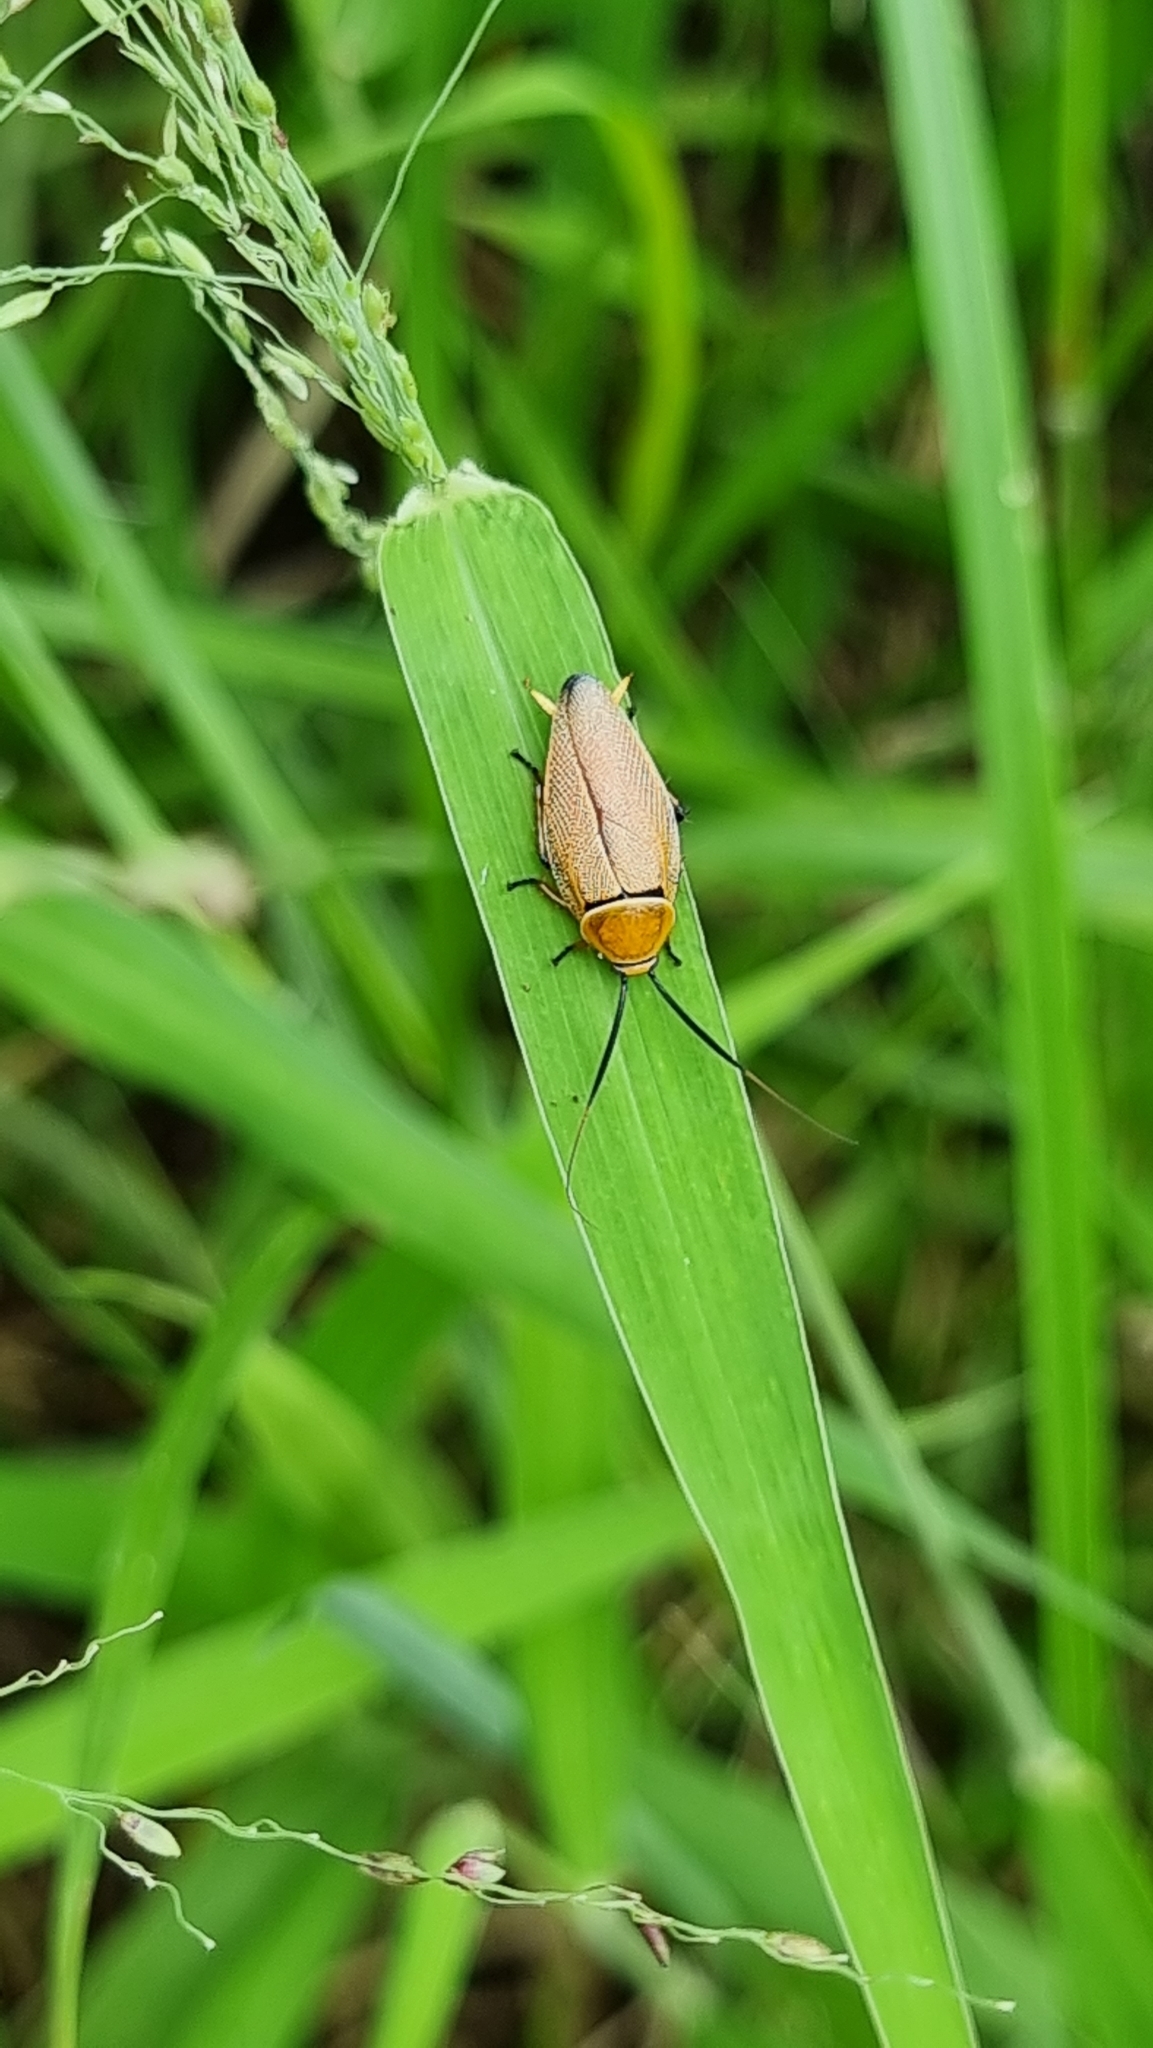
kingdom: Animalia
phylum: Arthropoda
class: Insecta
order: Blattodea
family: Ectobiidae
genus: Ellipsidion
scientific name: Ellipsidion humerale
